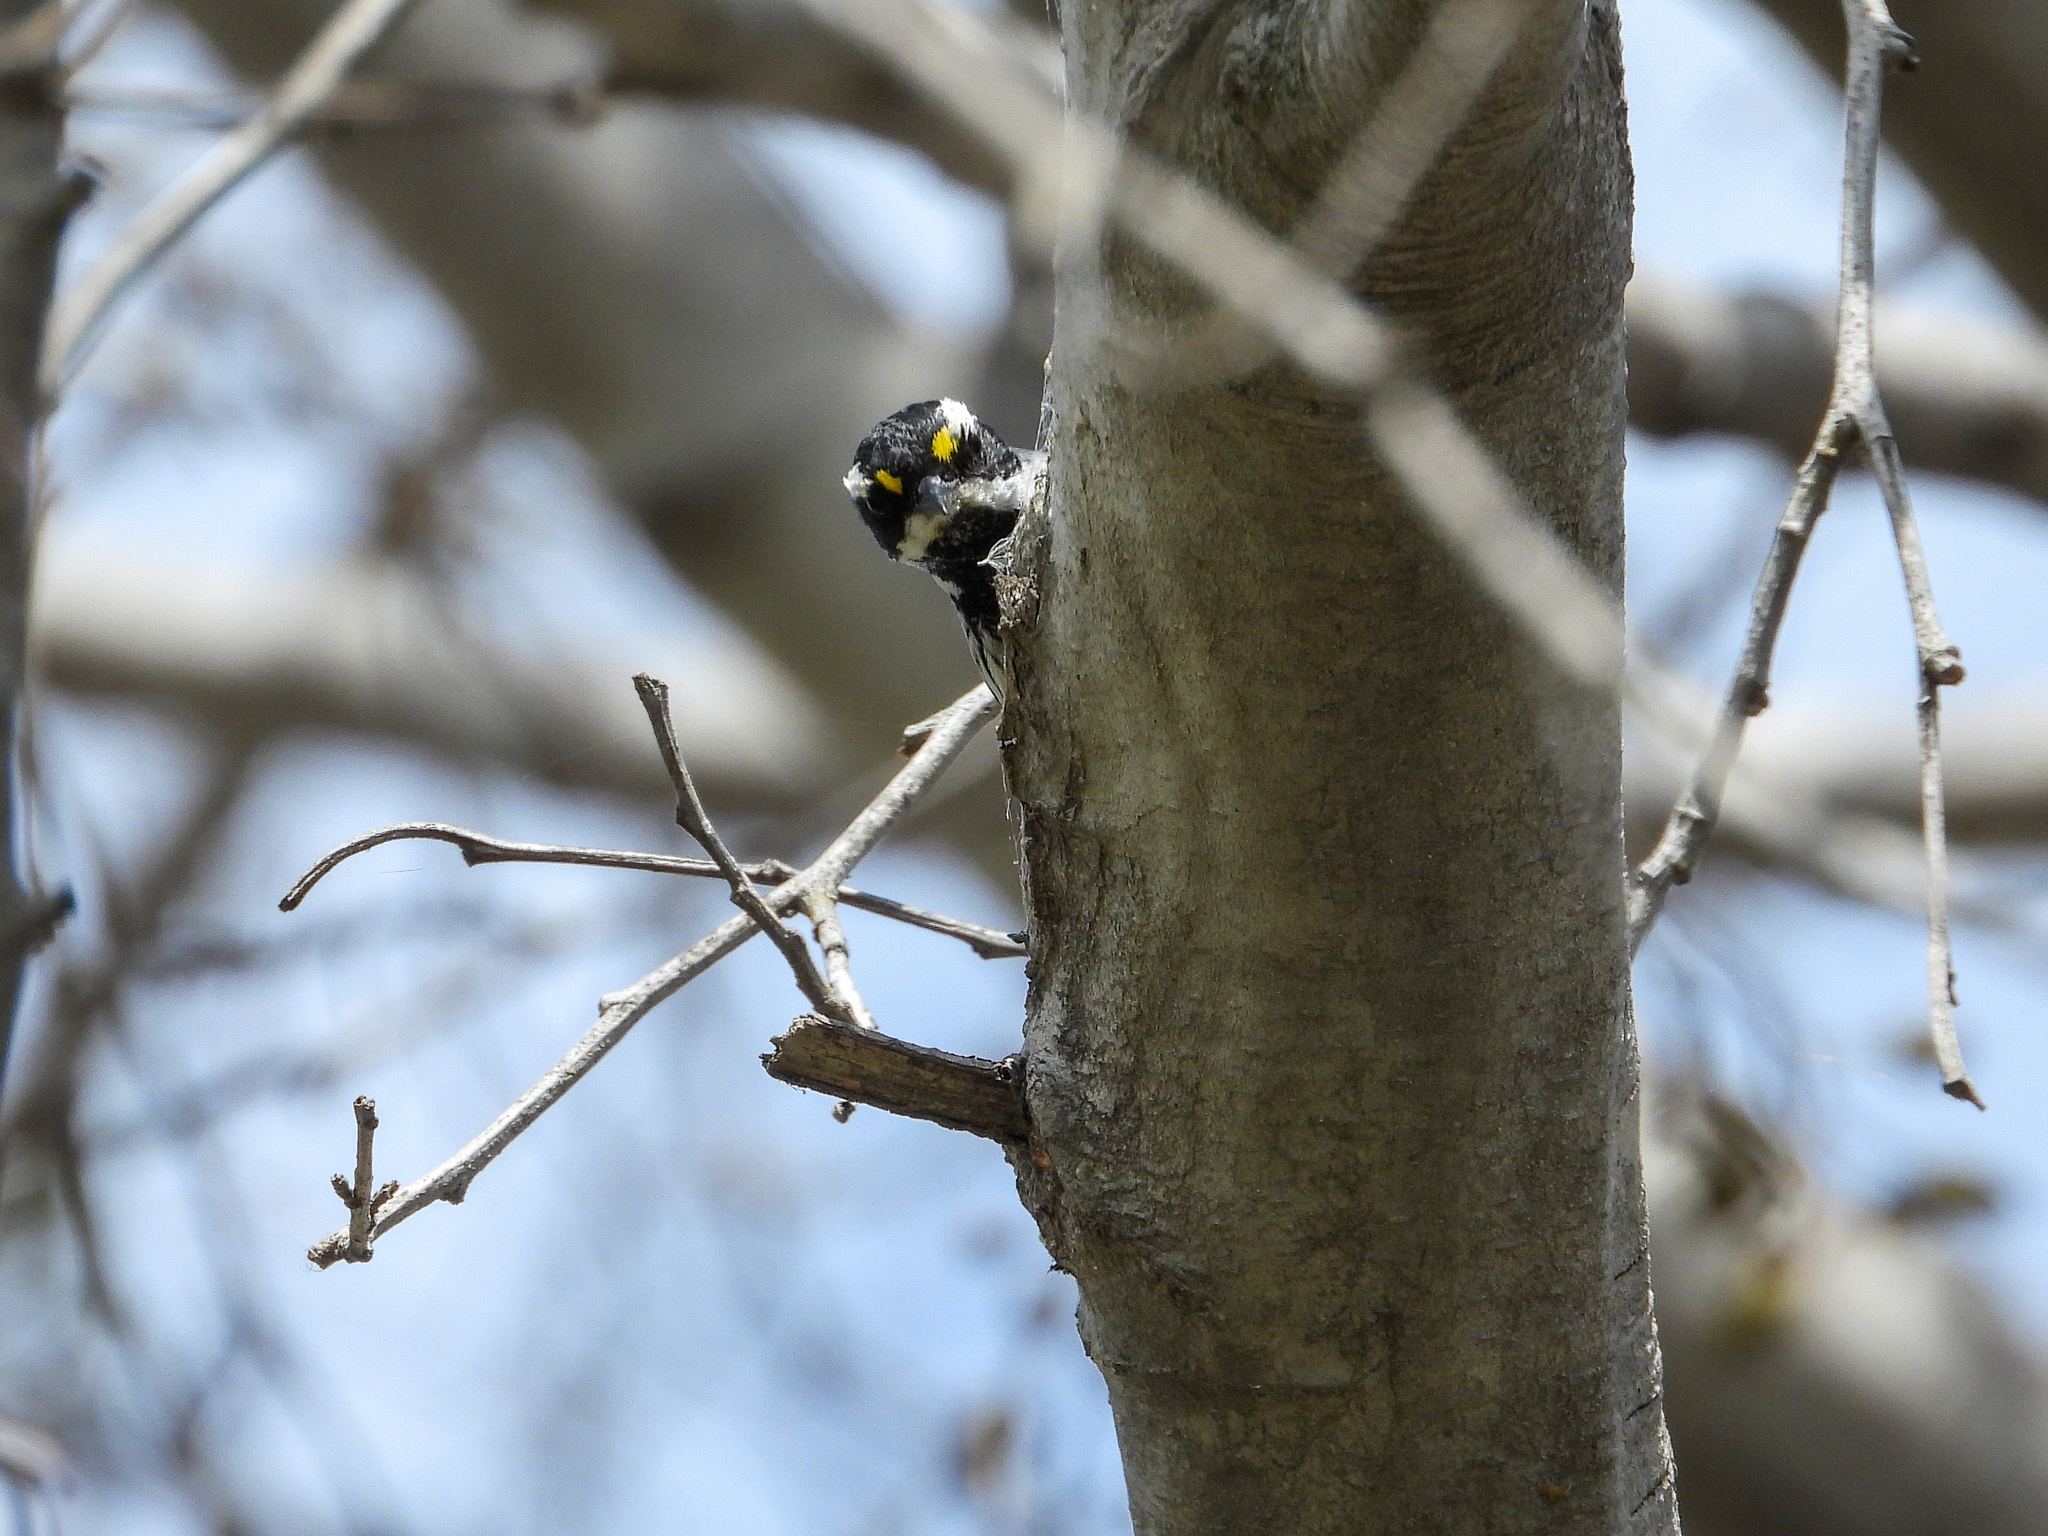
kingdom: Animalia
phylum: Chordata
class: Aves
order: Passeriformes
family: Parulidae
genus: Setophaga
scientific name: Setophaga nigrescens
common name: Black-throated gray warbler
